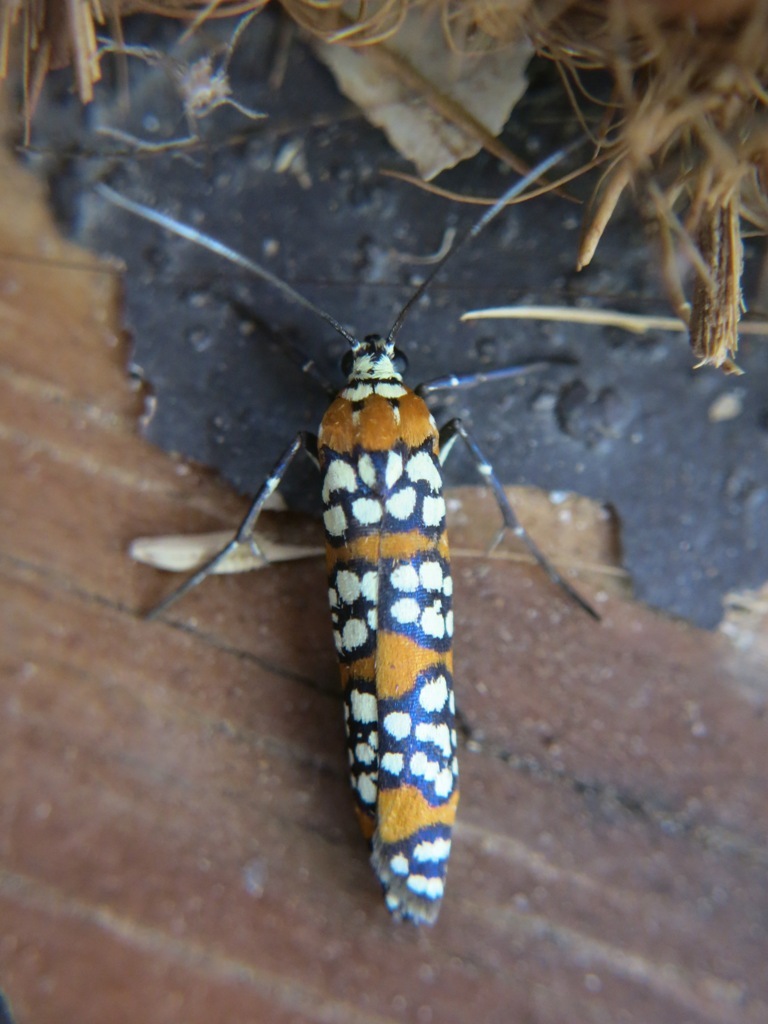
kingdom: Animalia
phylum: Arthropoda
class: Insecta
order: Lepidoptera
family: Attevidae
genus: Atteva
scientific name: Atteva punctella
